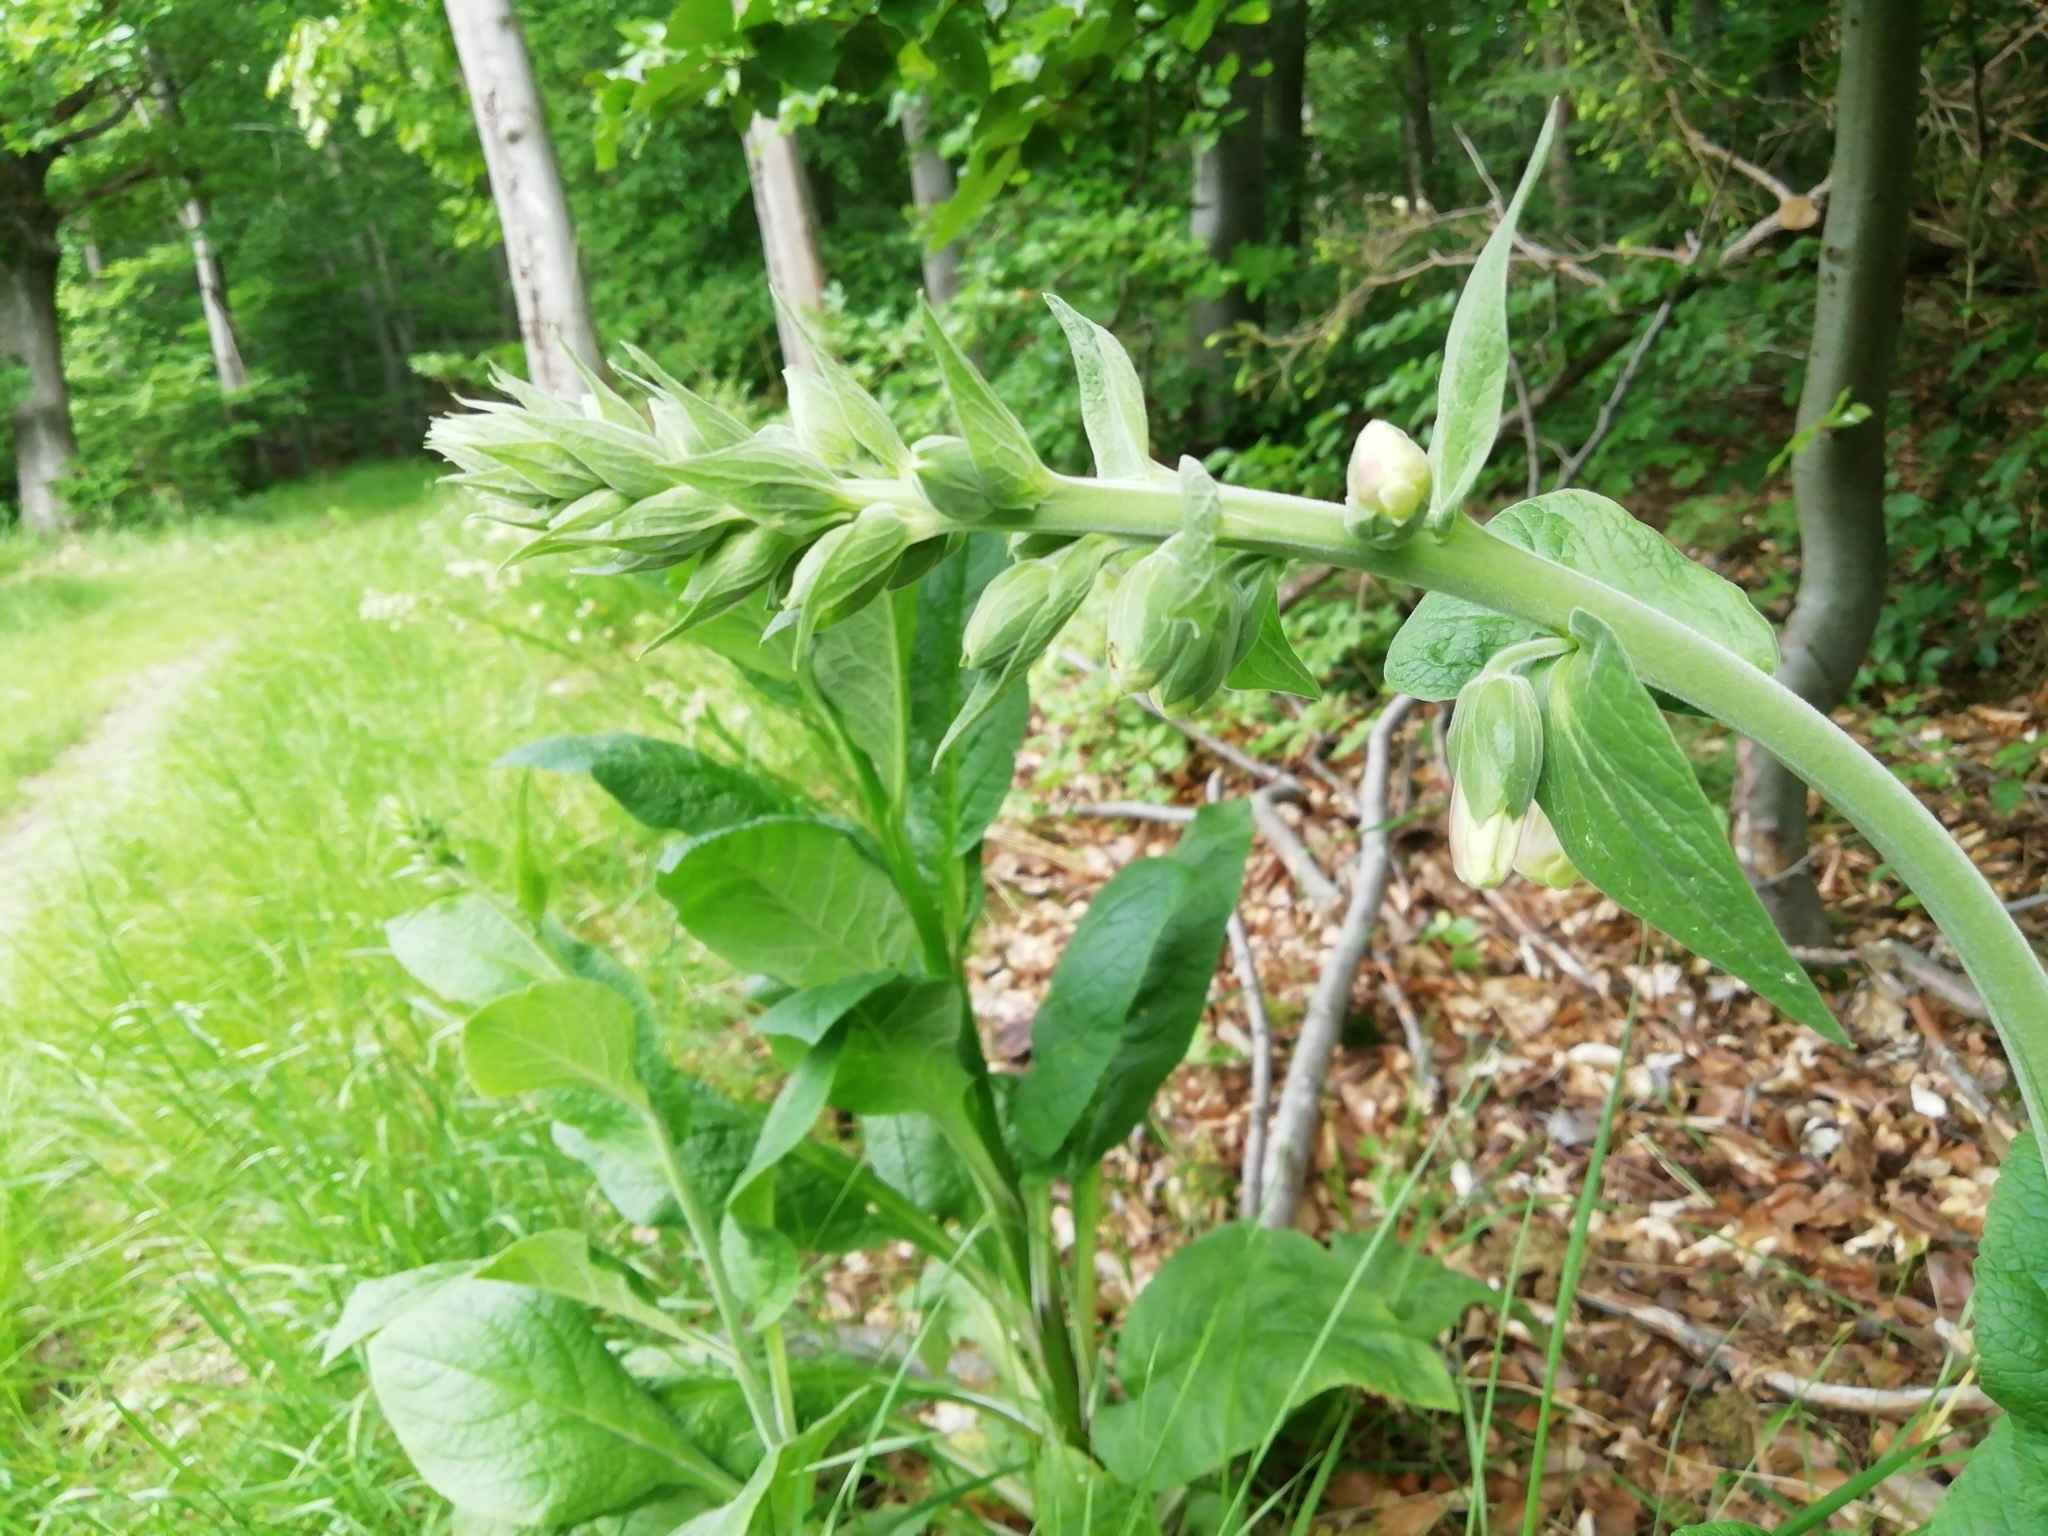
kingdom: Plantae
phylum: Tracheophyta
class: Magnoliopsida
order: Lamiales
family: Plantaginaceae
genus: Digitalis
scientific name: Digitalis grandiflora
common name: Yellow foxglove
